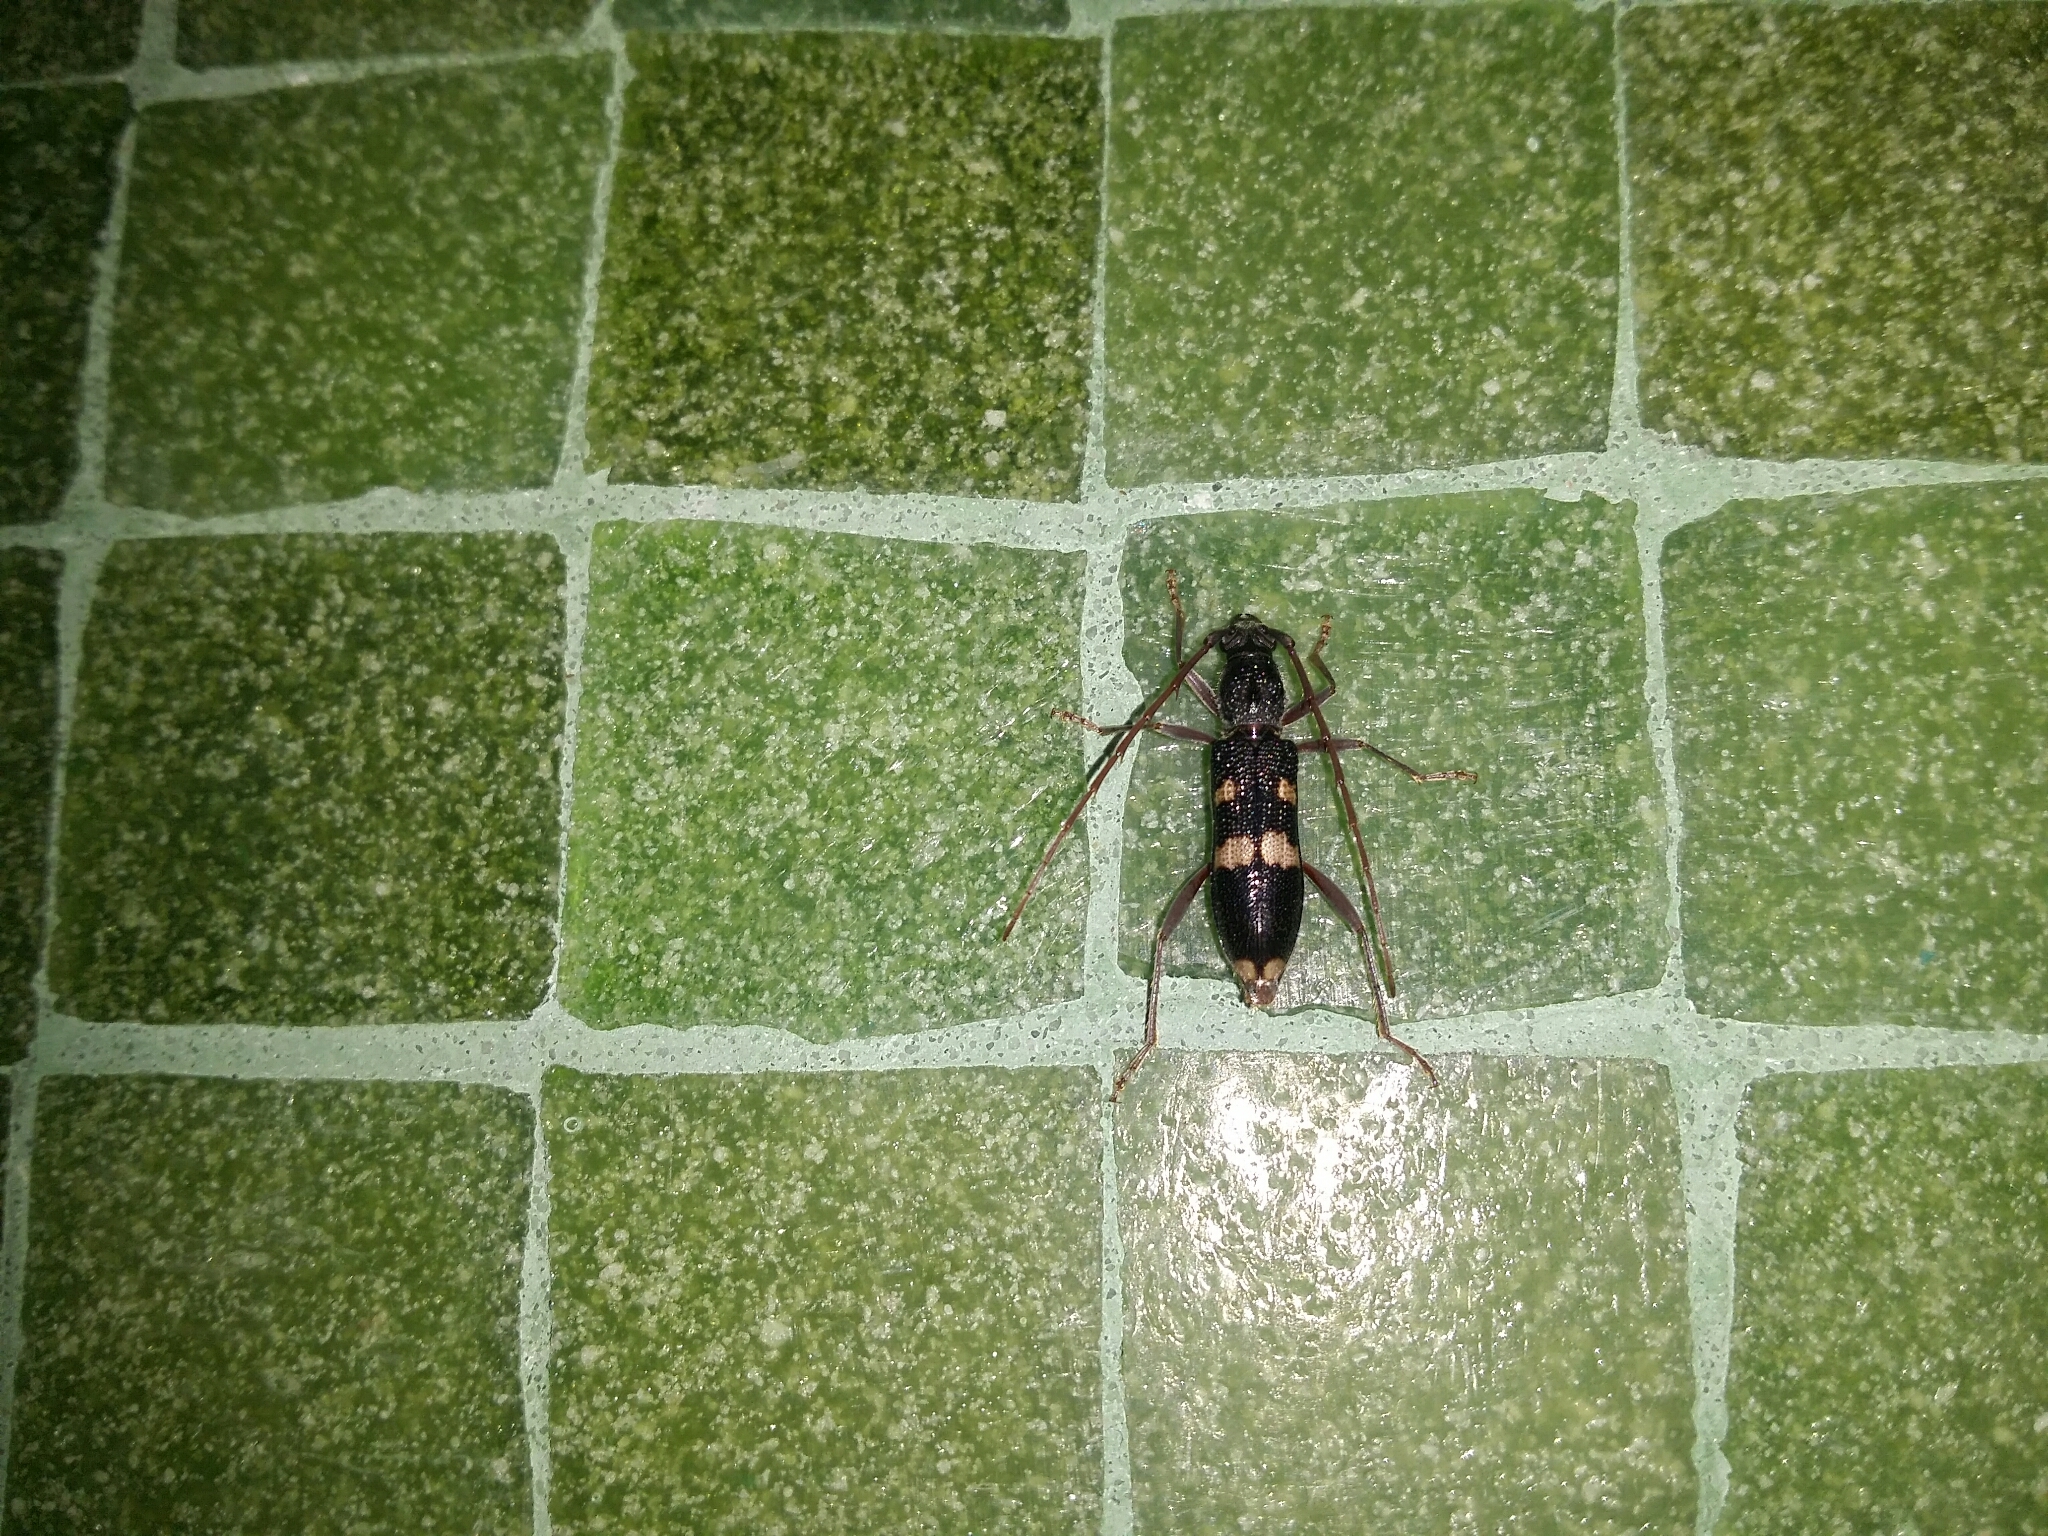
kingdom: Animalia
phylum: Arthropoda
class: Insecta
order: Coleoptera
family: Cerambycidae
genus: Coleocoptus
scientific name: Coleocoptus senio
